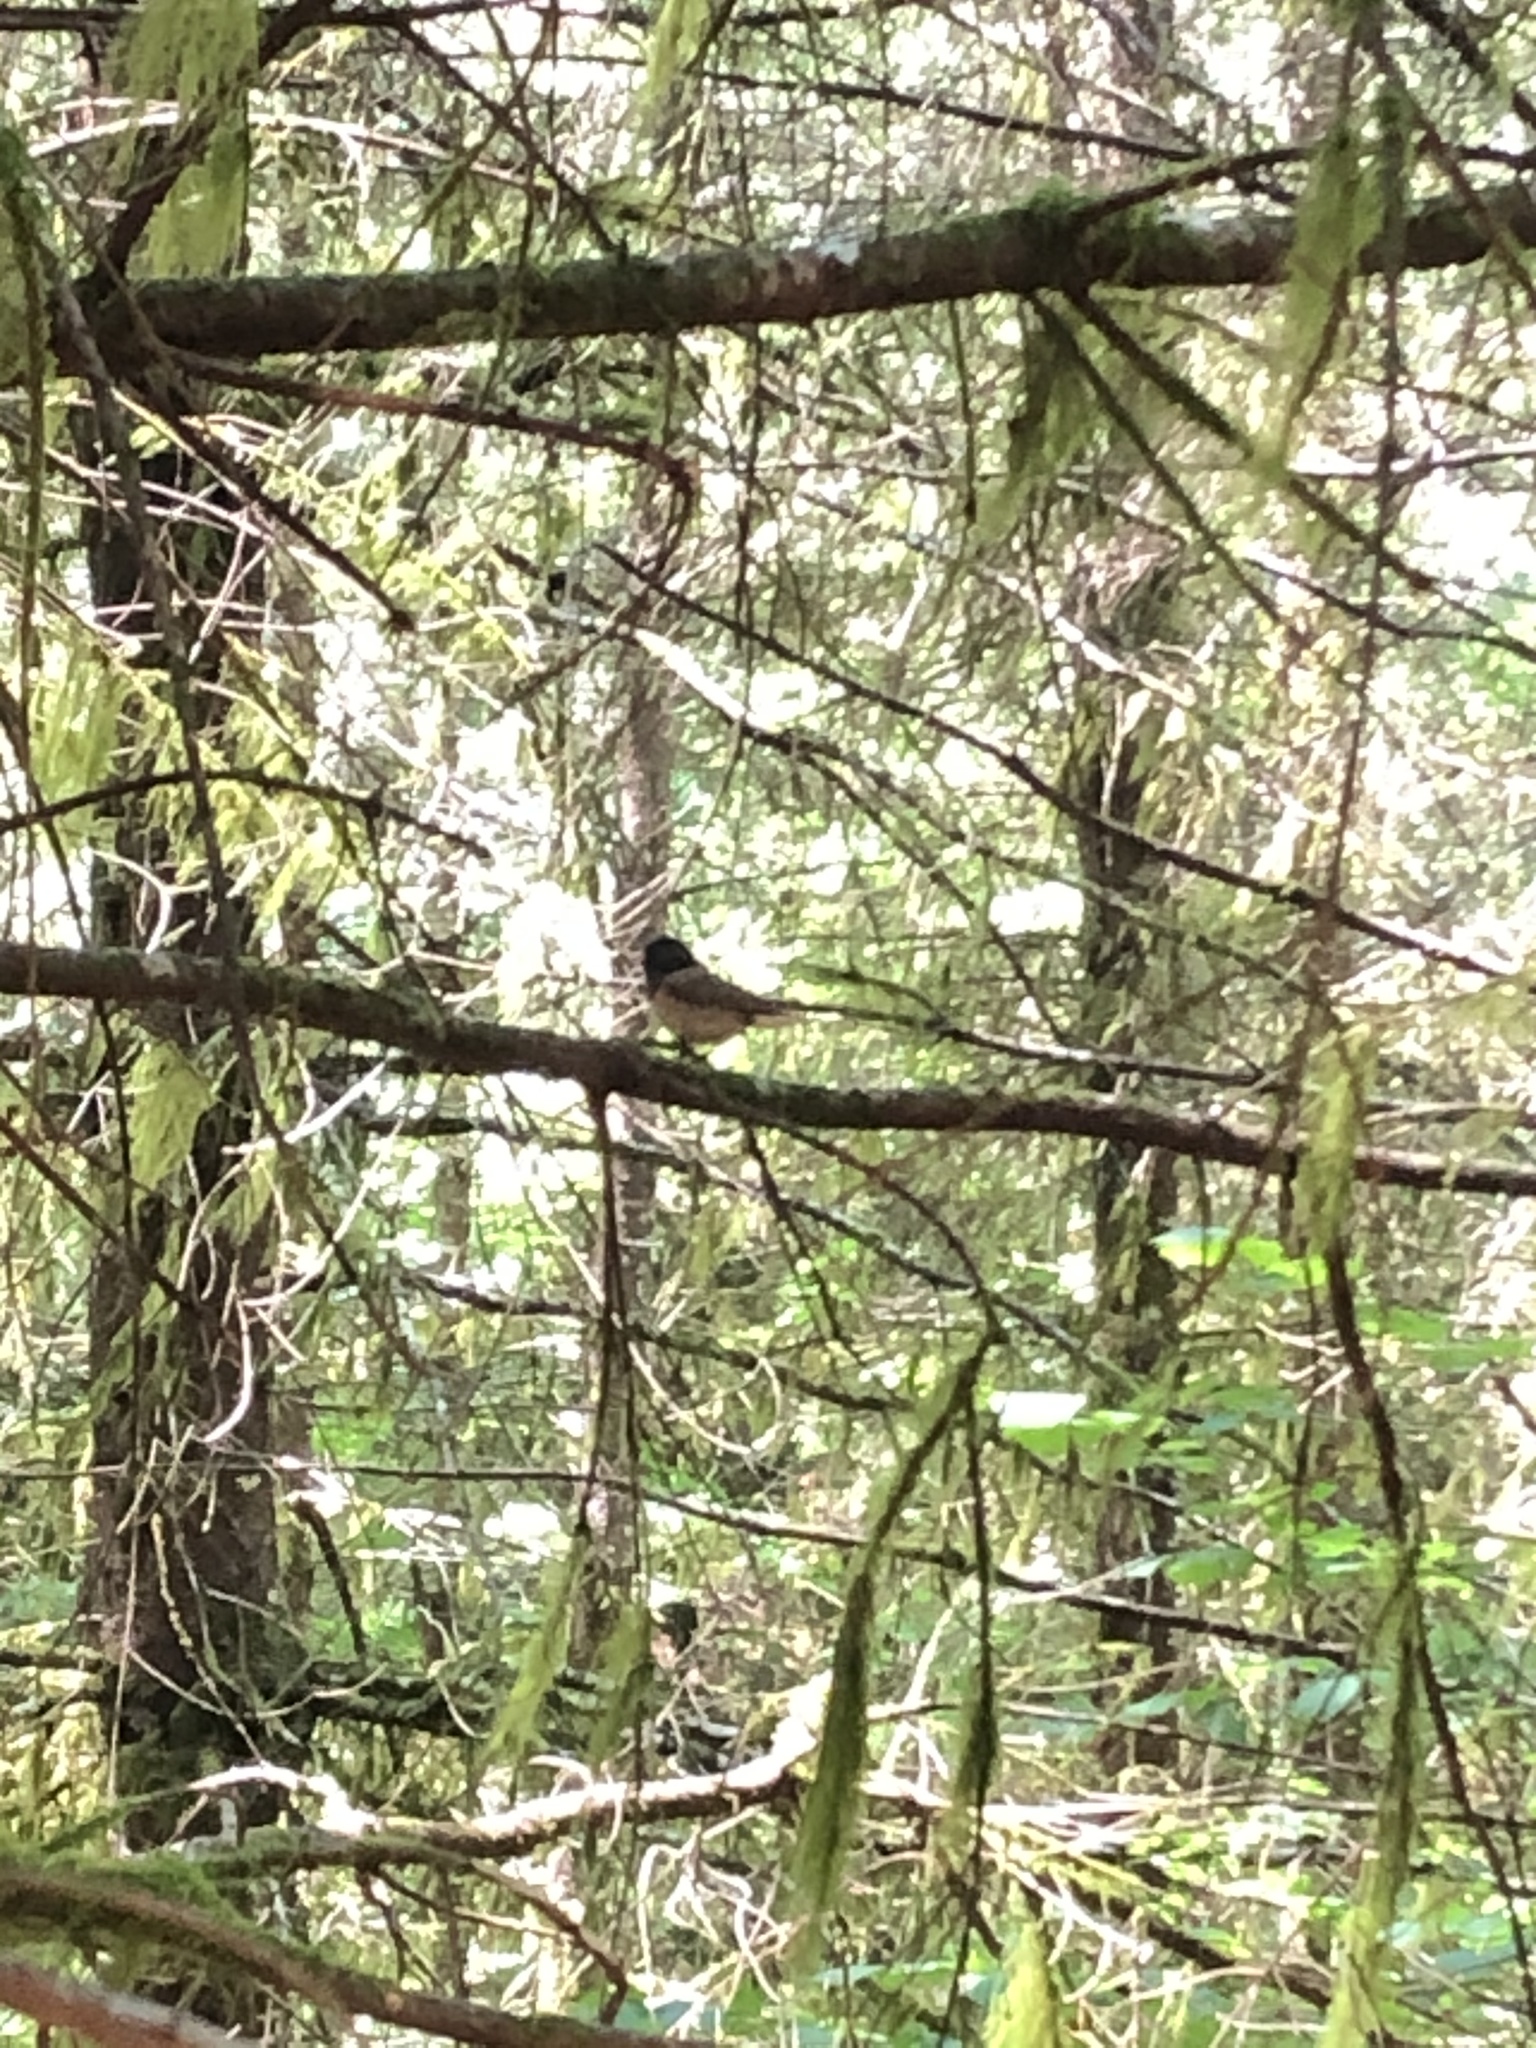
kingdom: Animalia
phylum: Chordata
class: Aves
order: Passeriformes
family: Passerellidae
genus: Junco
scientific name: Junco hyemalis
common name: Dark-eyed junco
